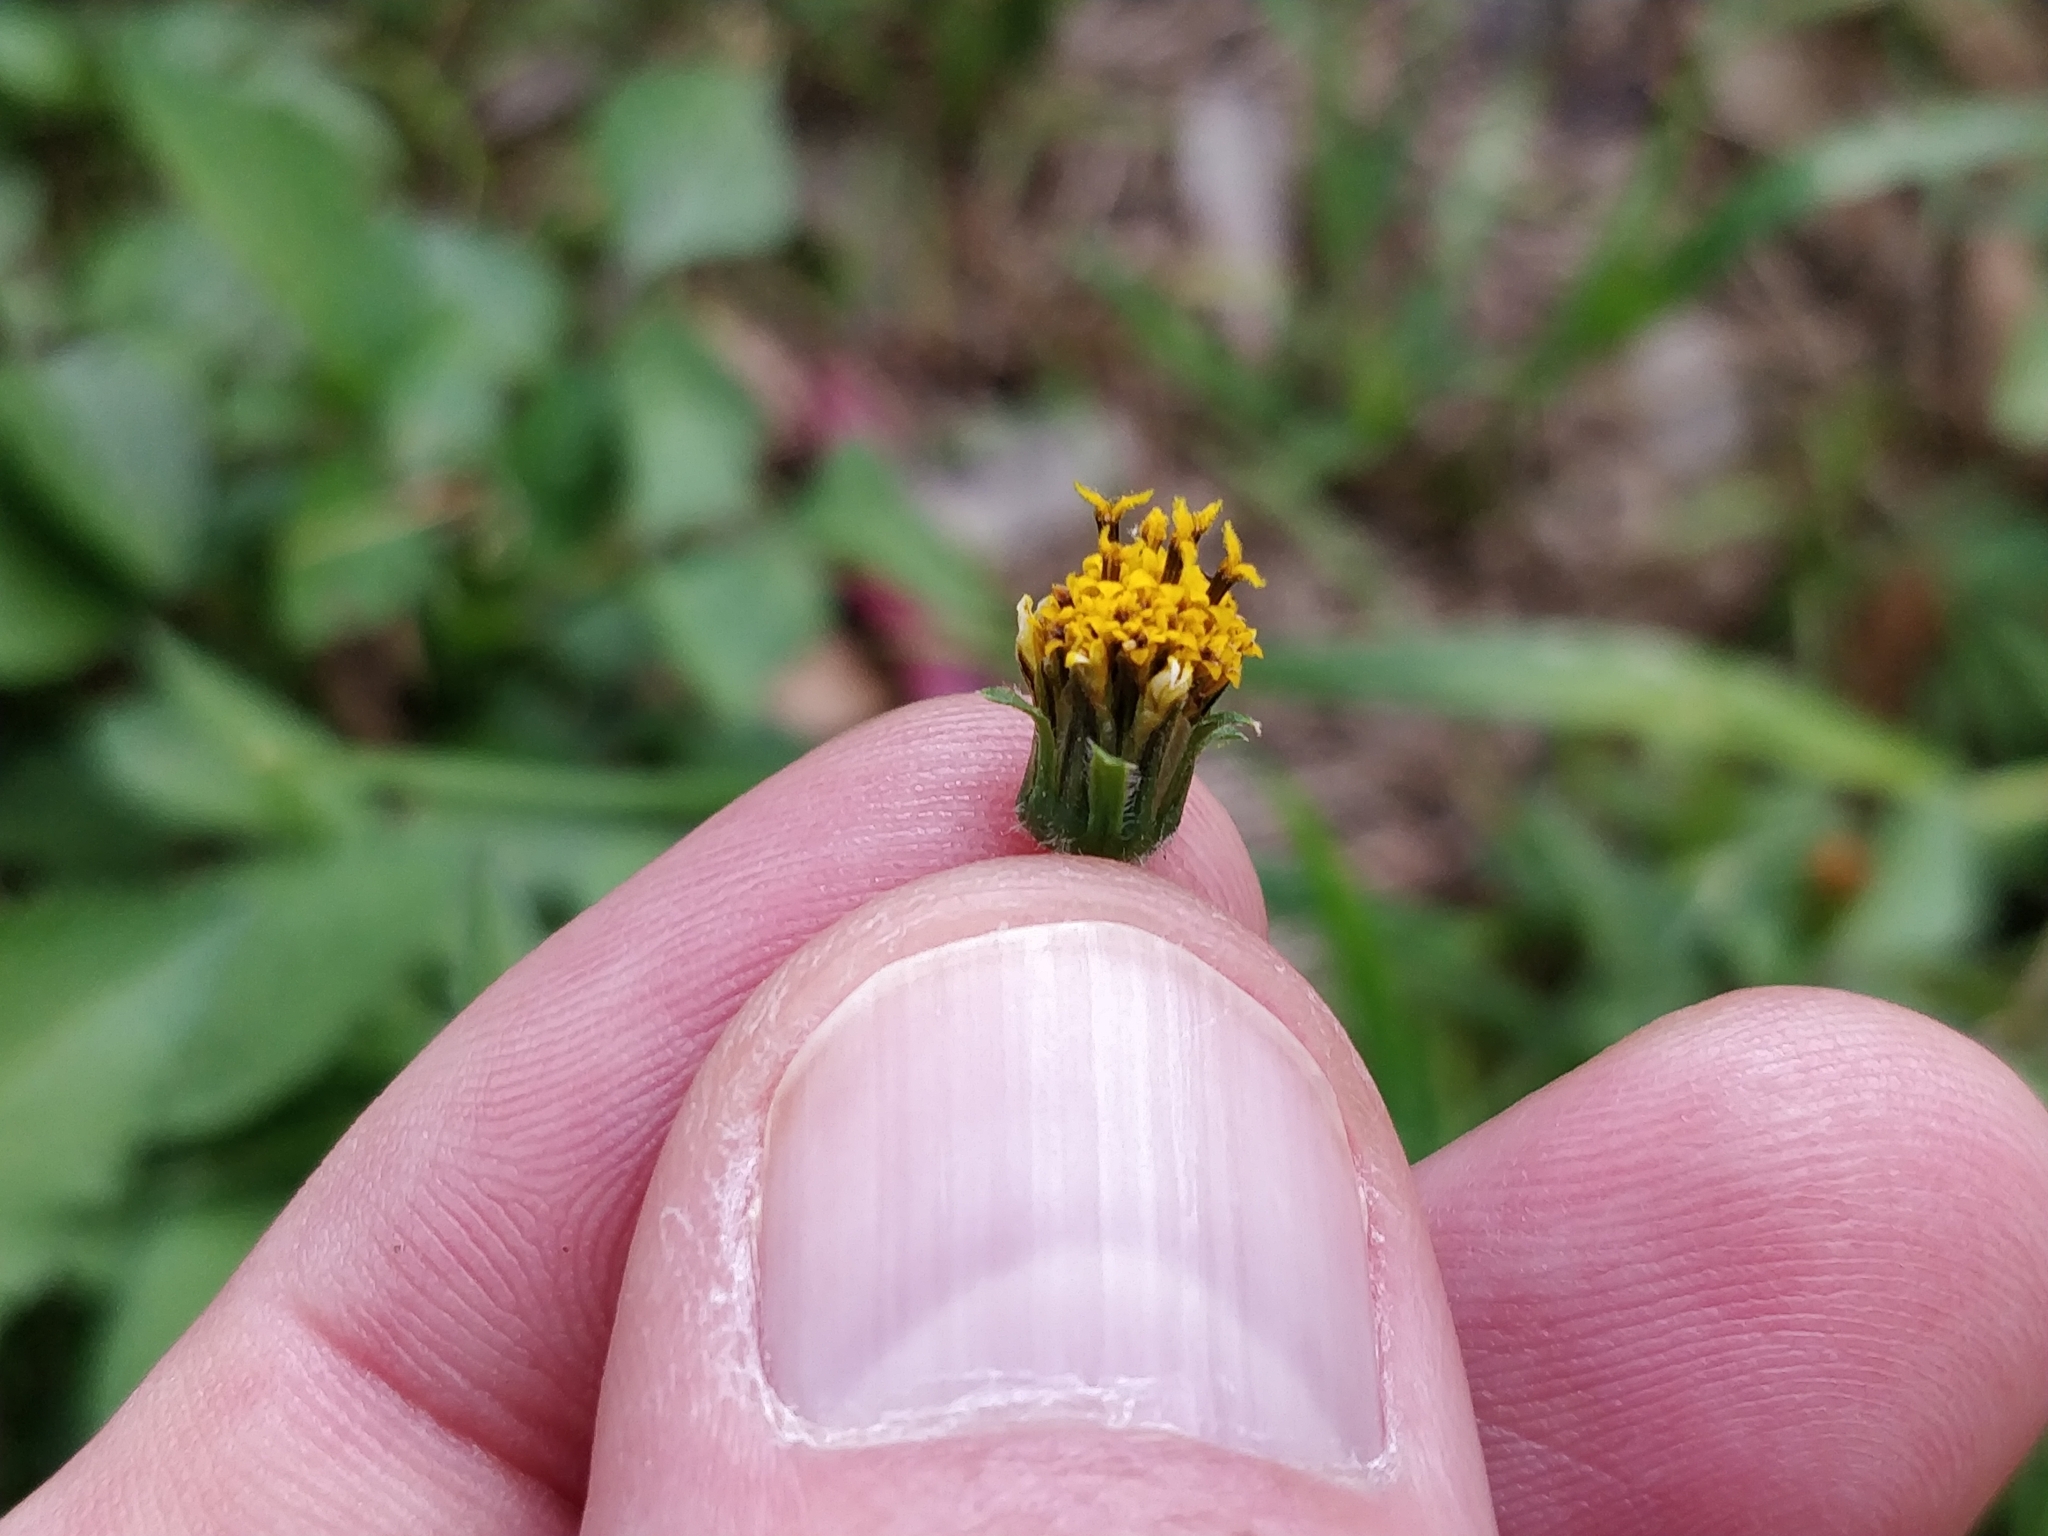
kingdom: Plantae
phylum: Tracheophyta
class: Magnoliopsida
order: Asterales
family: Asteraceae
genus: Bidens
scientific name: Bidens pilosa
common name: Black-jack
